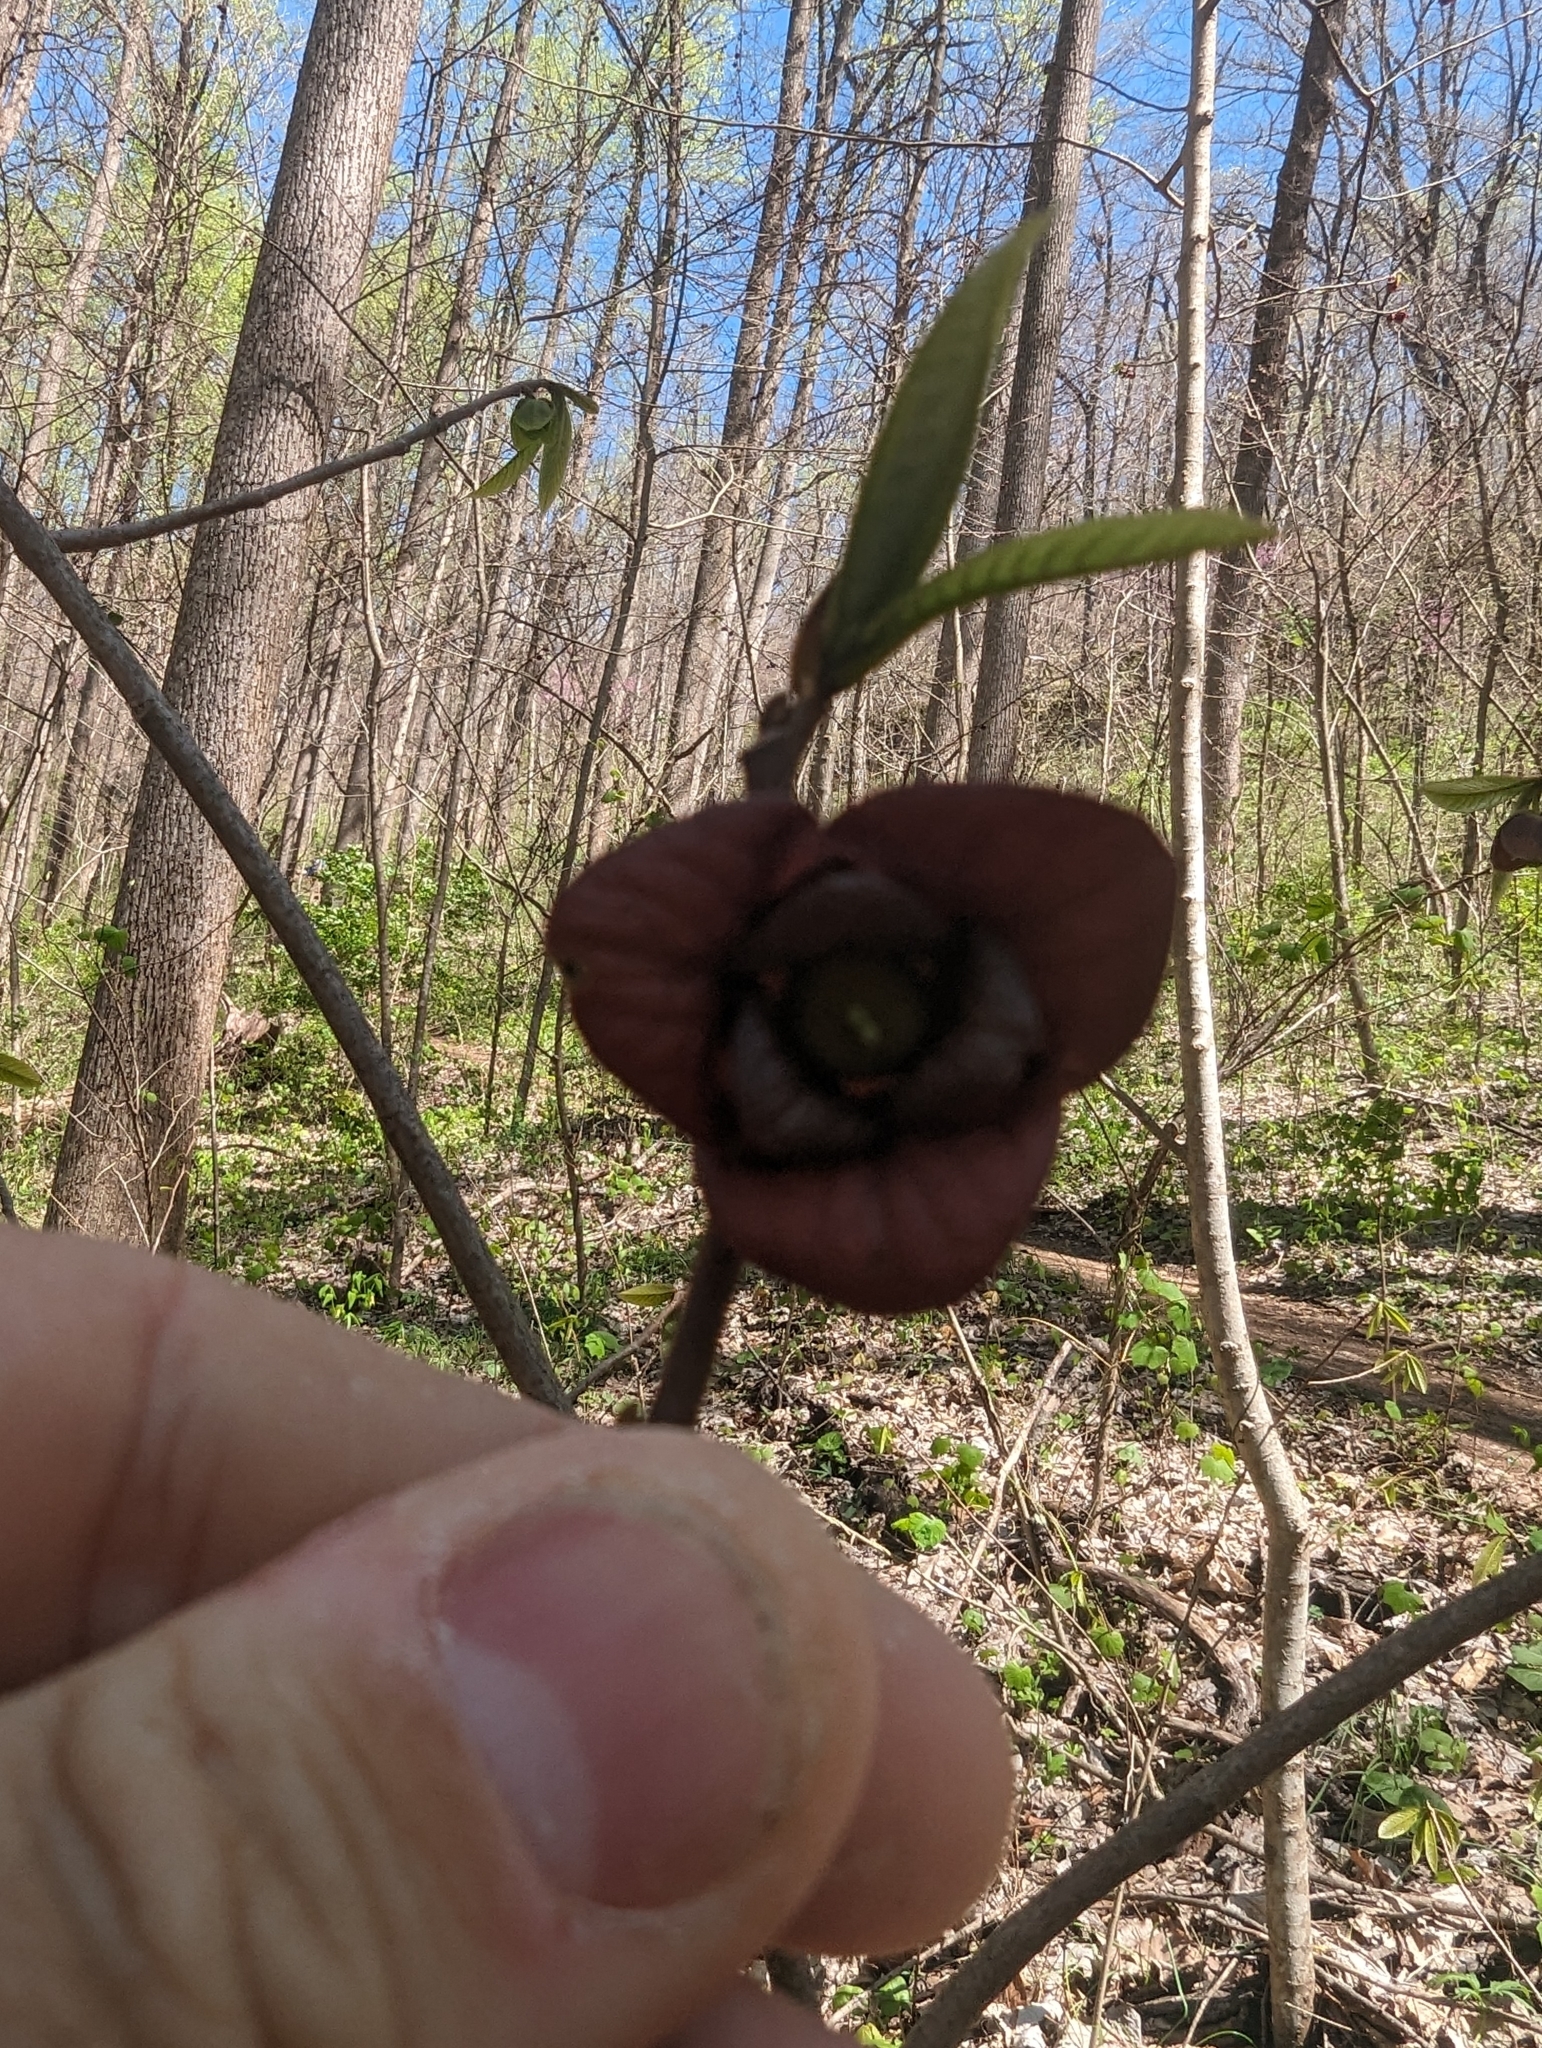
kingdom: Plantae
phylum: Tracheophyta
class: Magnoliopsida
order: Magnoliales
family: Annonaceae
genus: Asimina
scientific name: Asimina triloba
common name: Dog-banana
